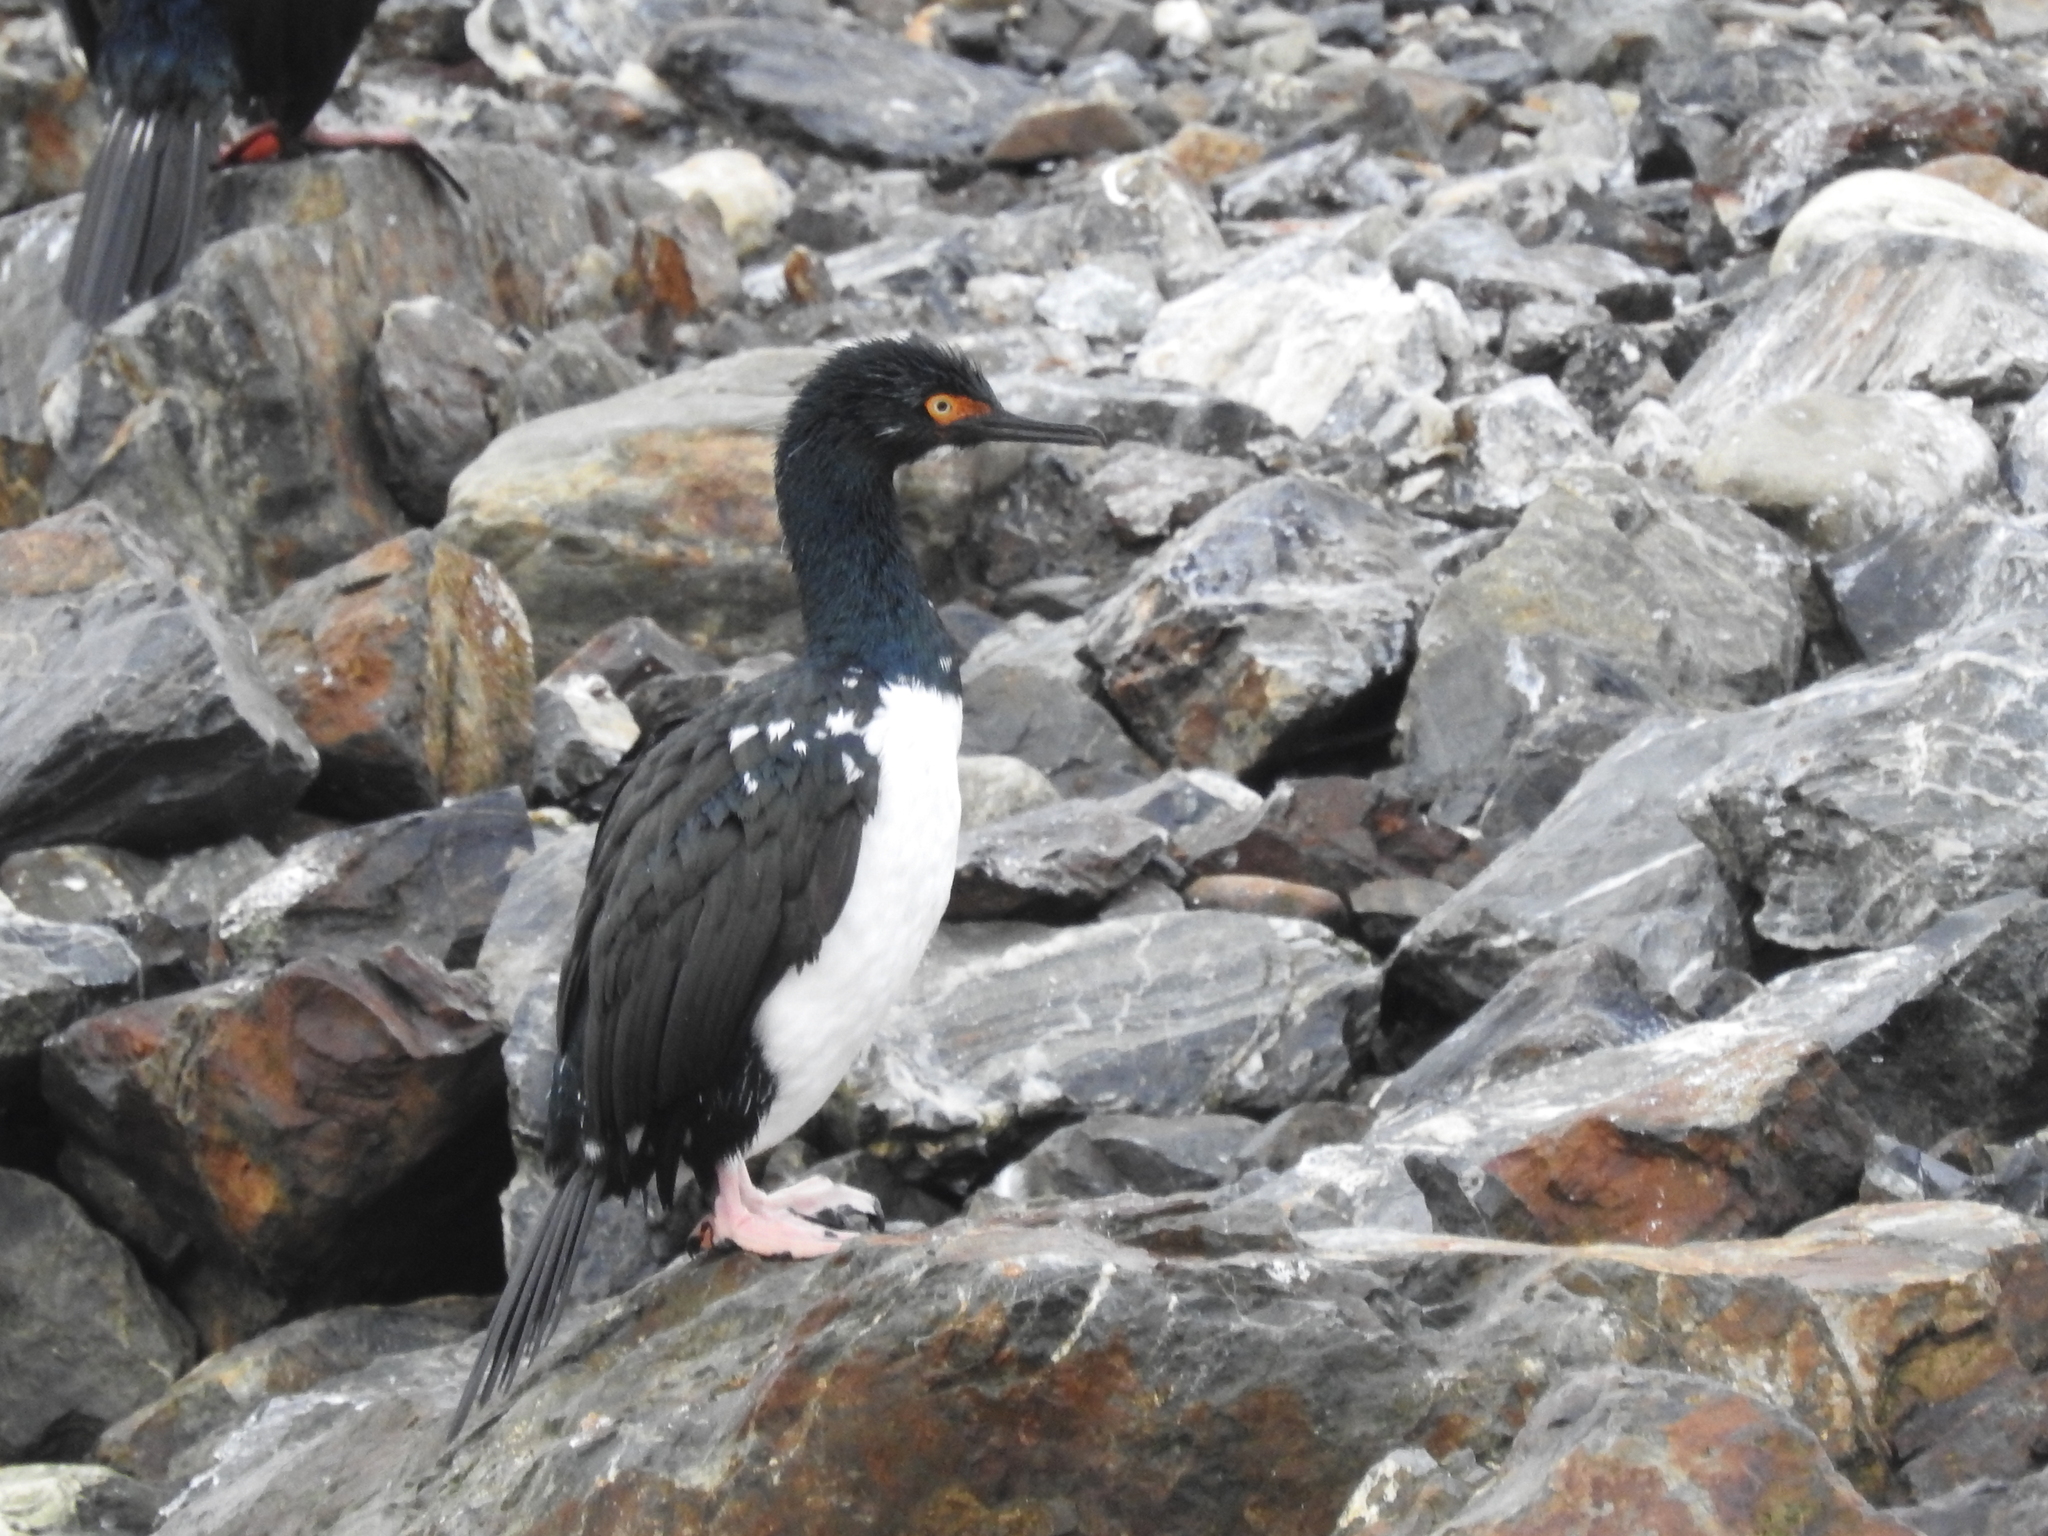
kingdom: Animalia
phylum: Chordata
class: Aves
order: Suliformes
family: Phalacrocoracidae
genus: Phalacrocorax
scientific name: Phalacrocorax magellanicus
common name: Rock shag
